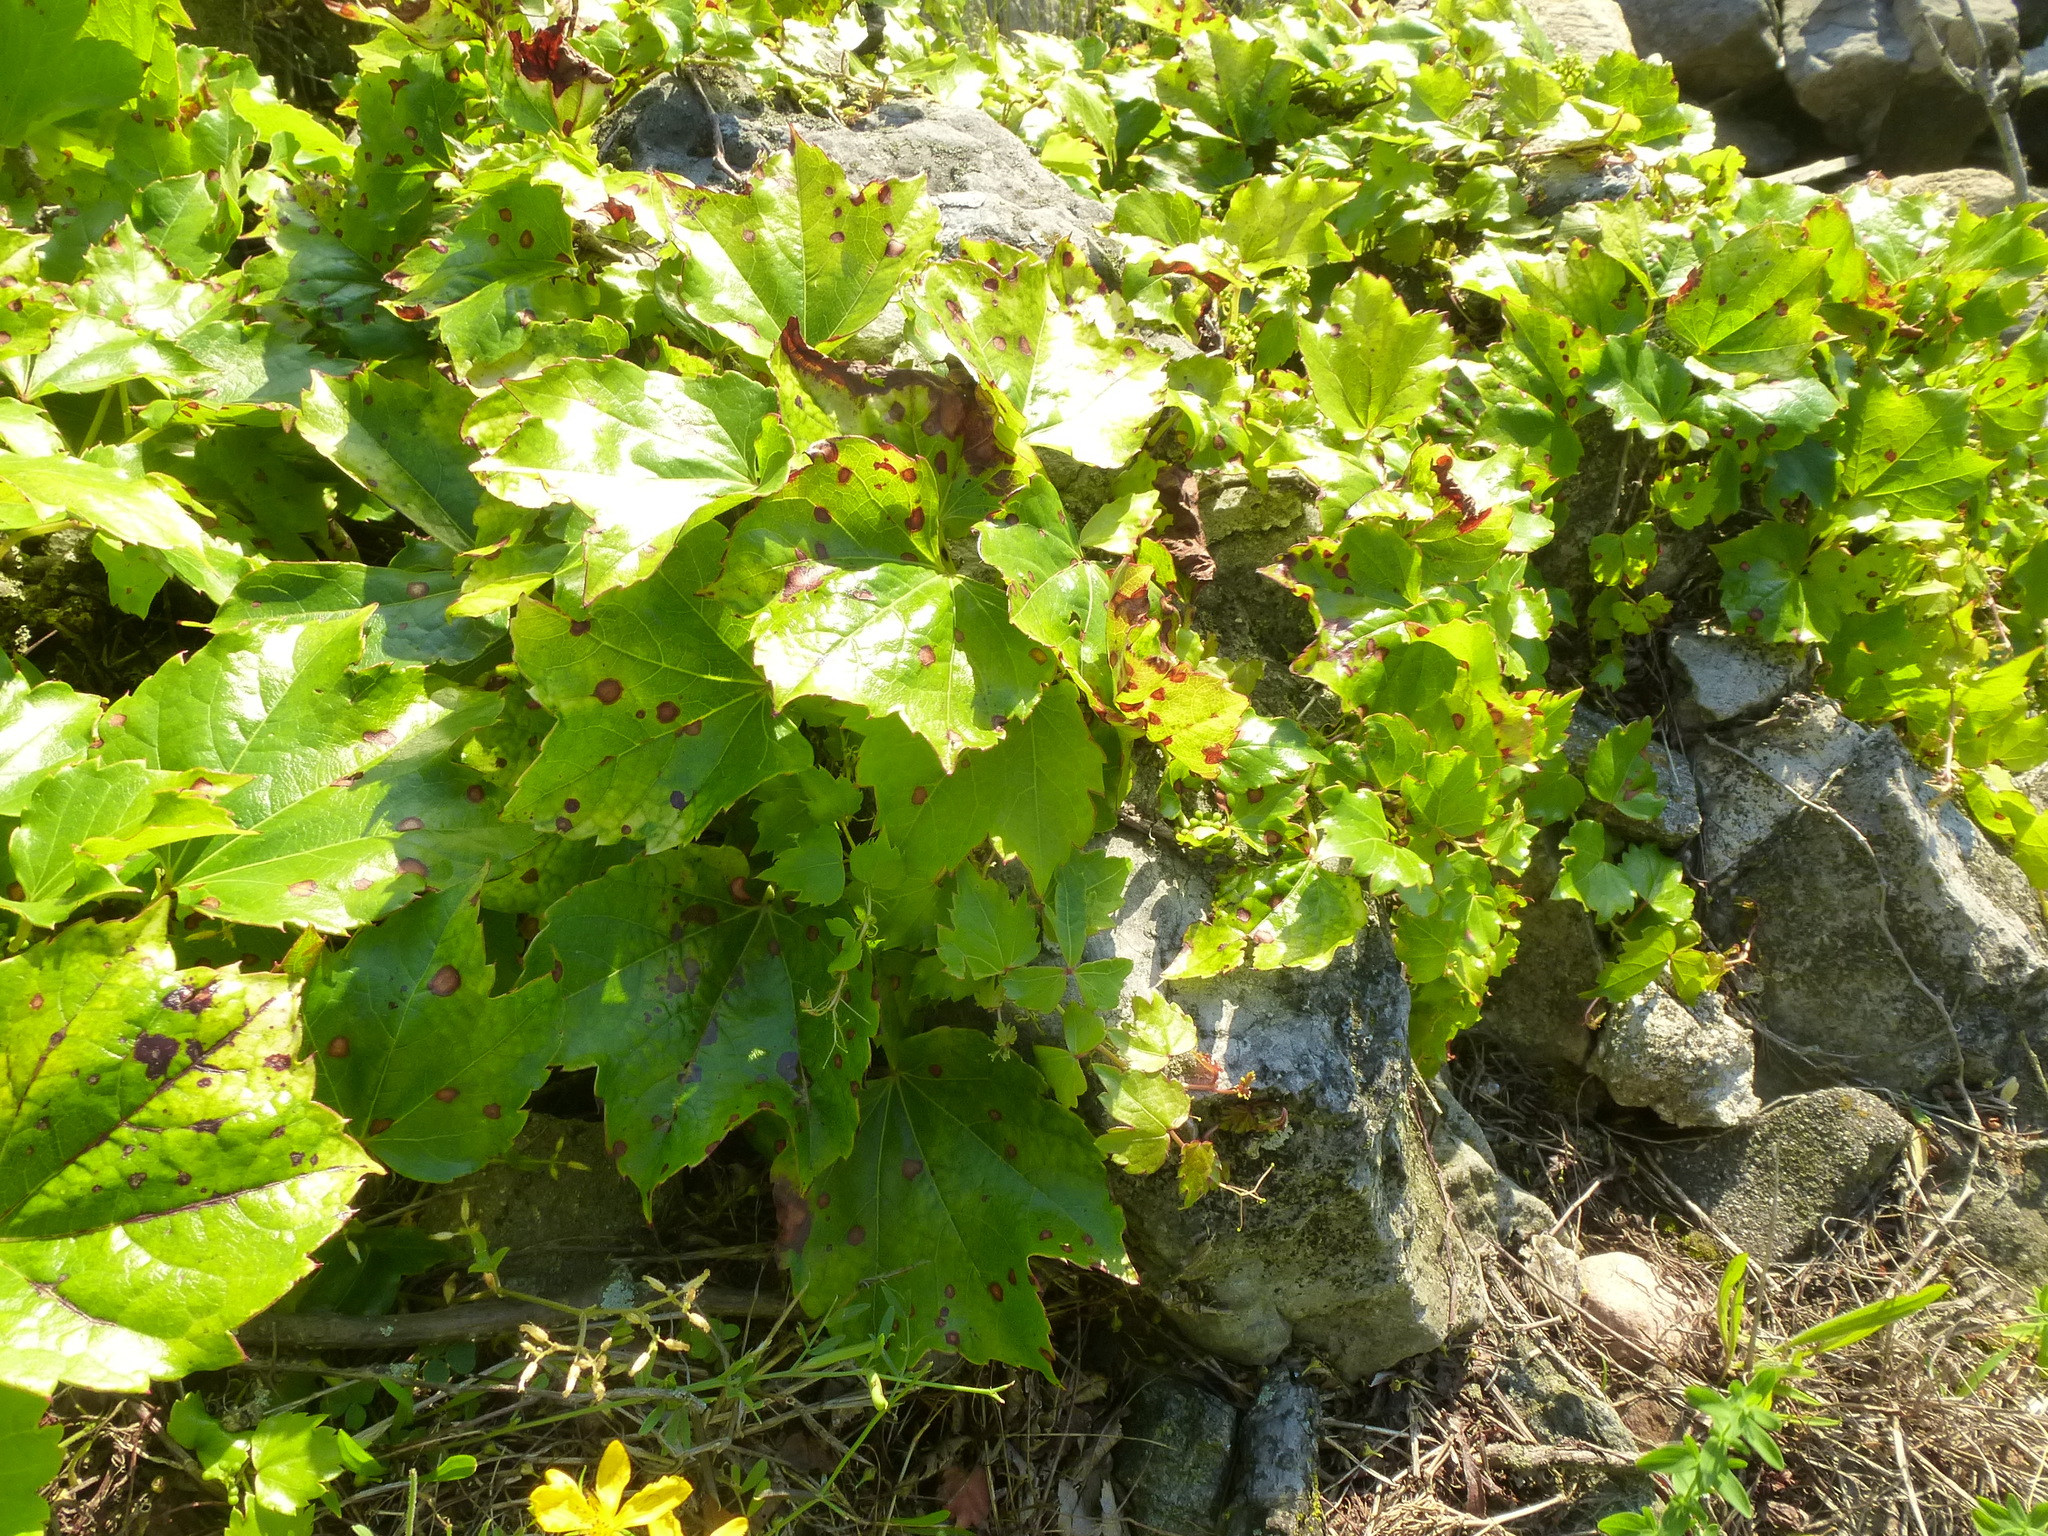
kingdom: Plantae
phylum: Tracheophyta
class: Magnoliopsida
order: Vitales
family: Vitaceae
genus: Parthenocissus
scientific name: Parthenocissus tricuspidata
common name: Boston ivy
